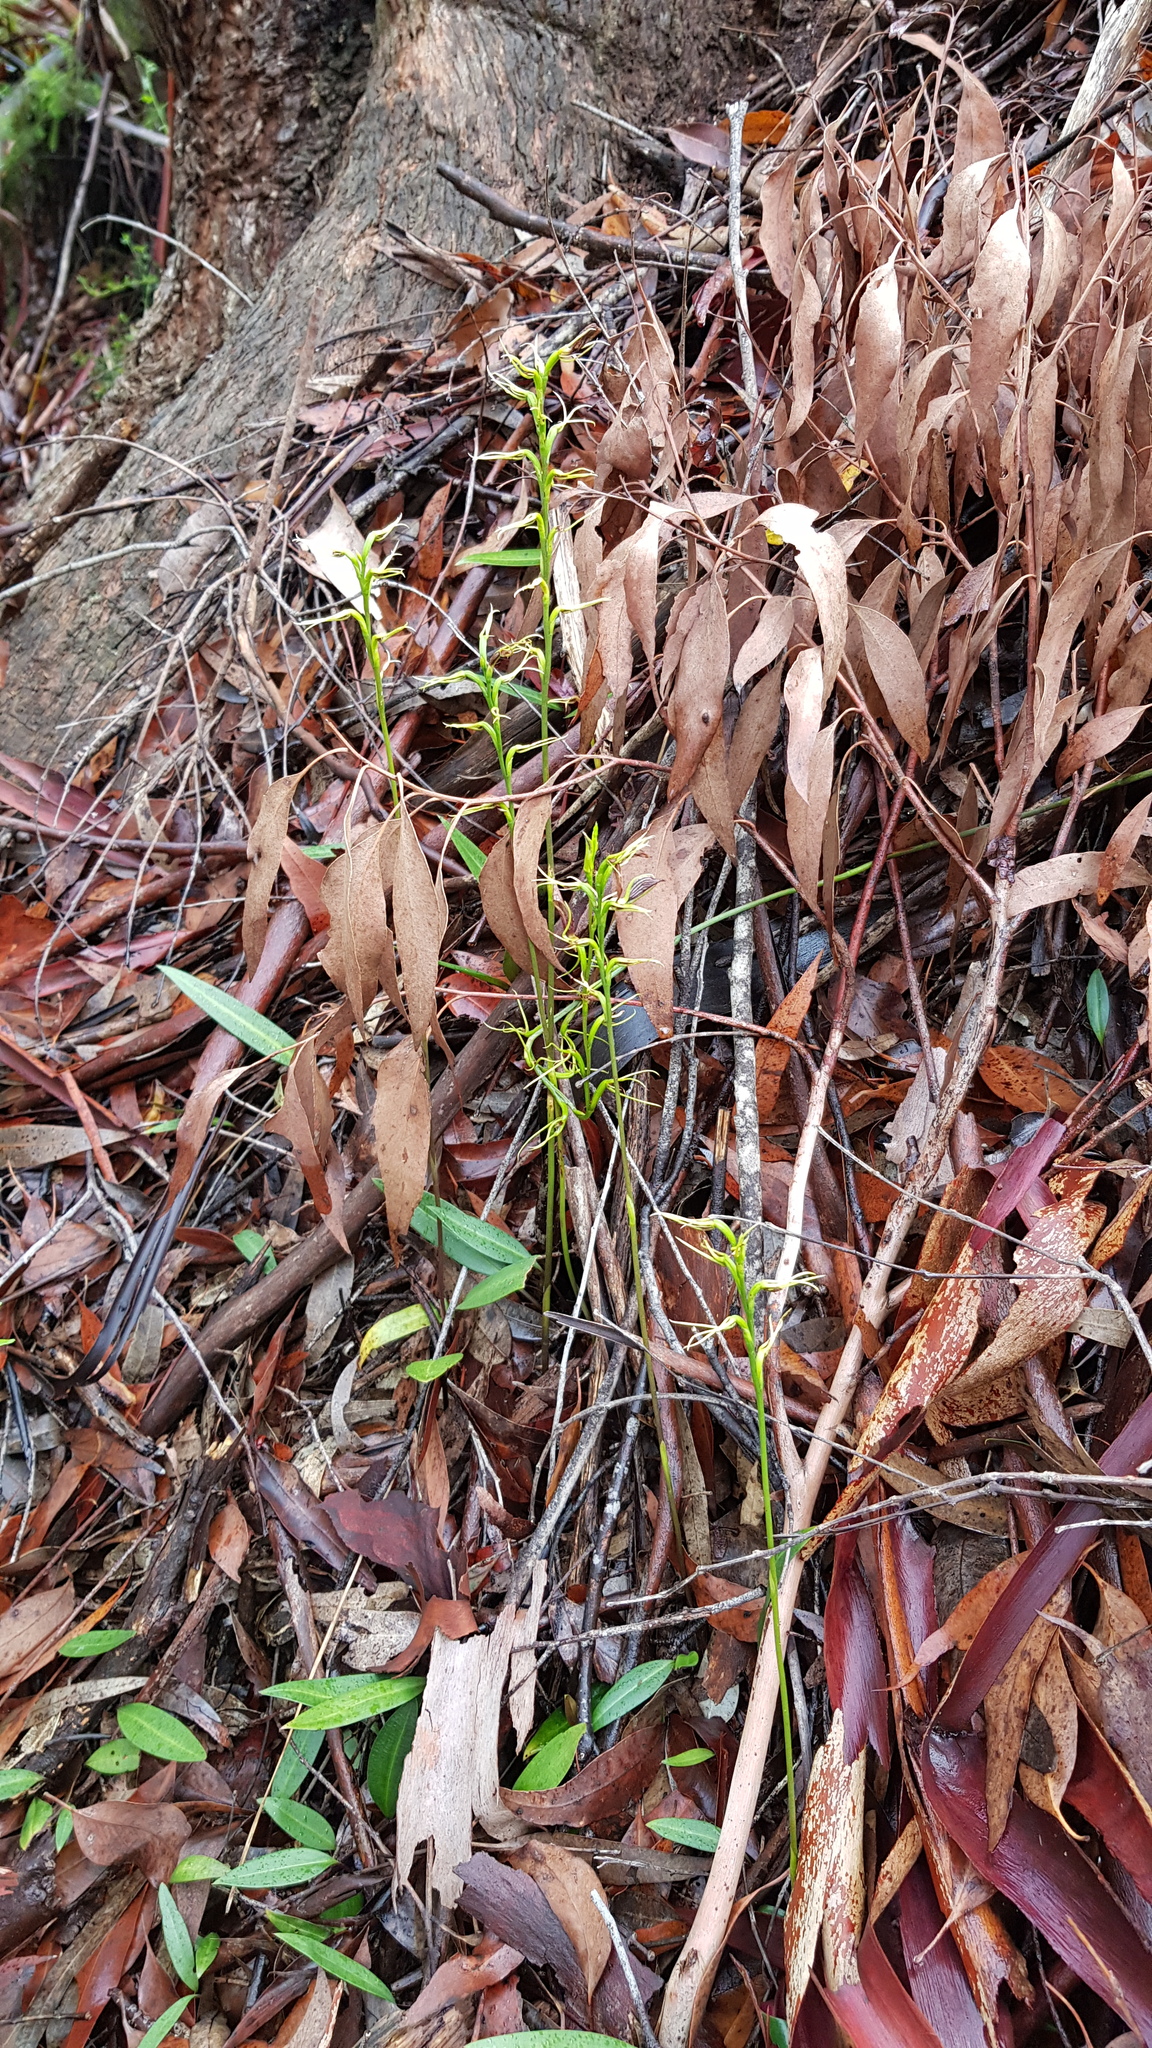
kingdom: Plantae
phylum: Tracheophyta
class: Liliopsida
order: Asparagales
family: Orchidaceae
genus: Cryptostylis
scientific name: Cryptostylis erecta
